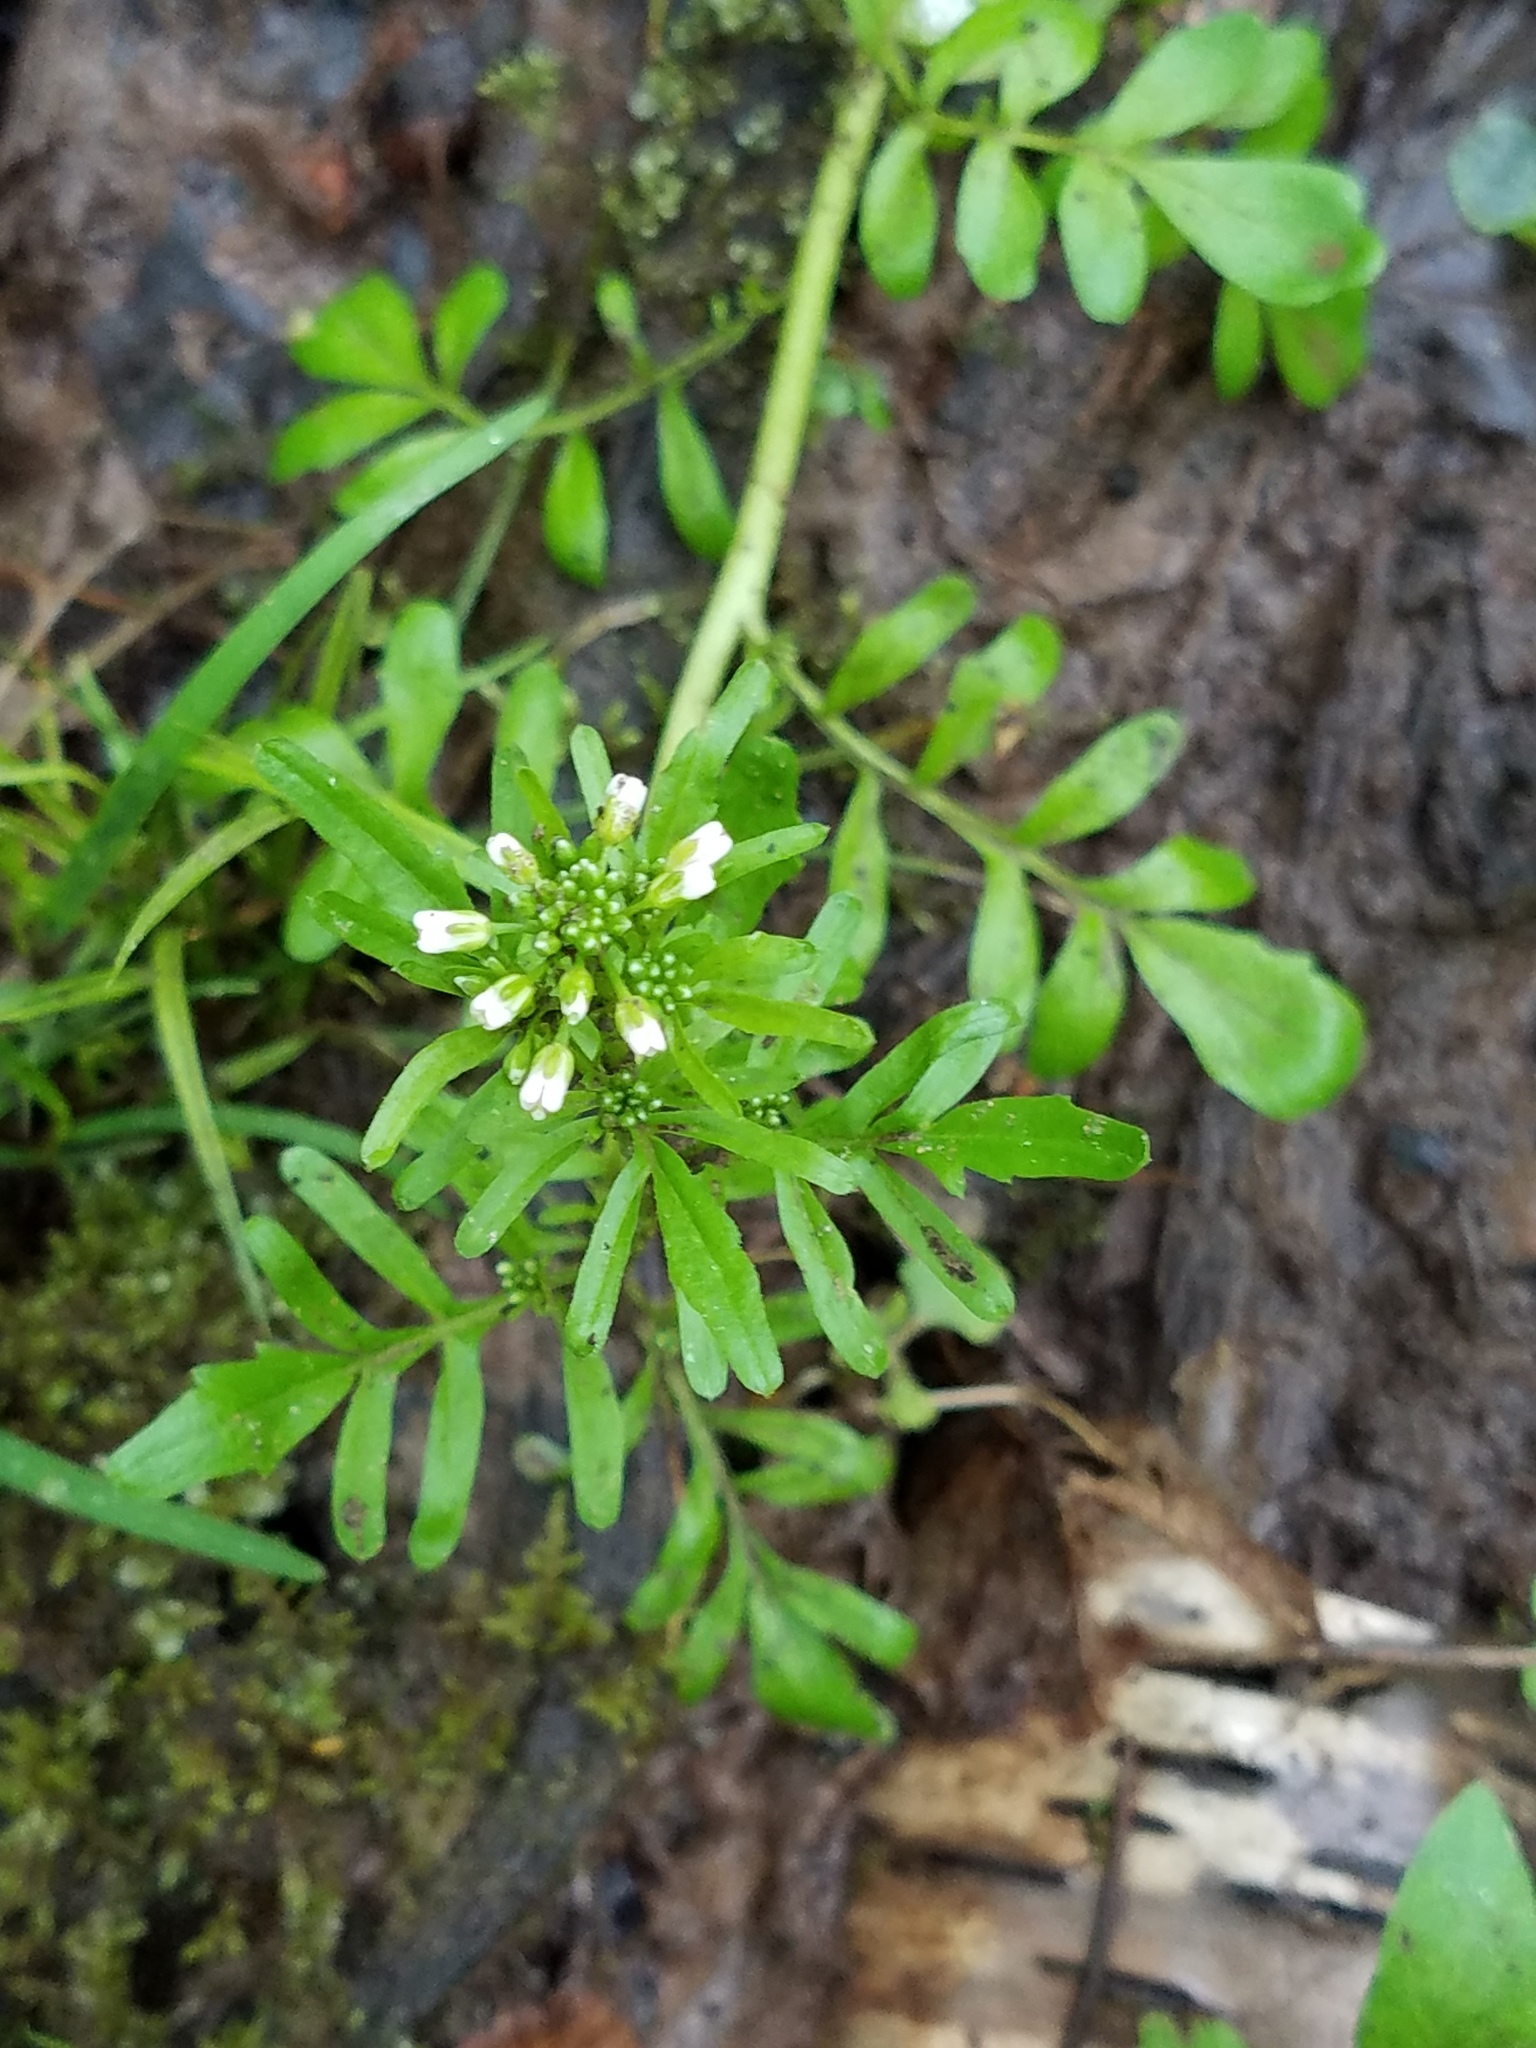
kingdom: Plantae
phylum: Tracheophyta
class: Magnoliopsida
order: Brassicales
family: Brassicaceae
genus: Cardamine
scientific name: Cardamine pensylvanica
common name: Pennsylvania bittercress
